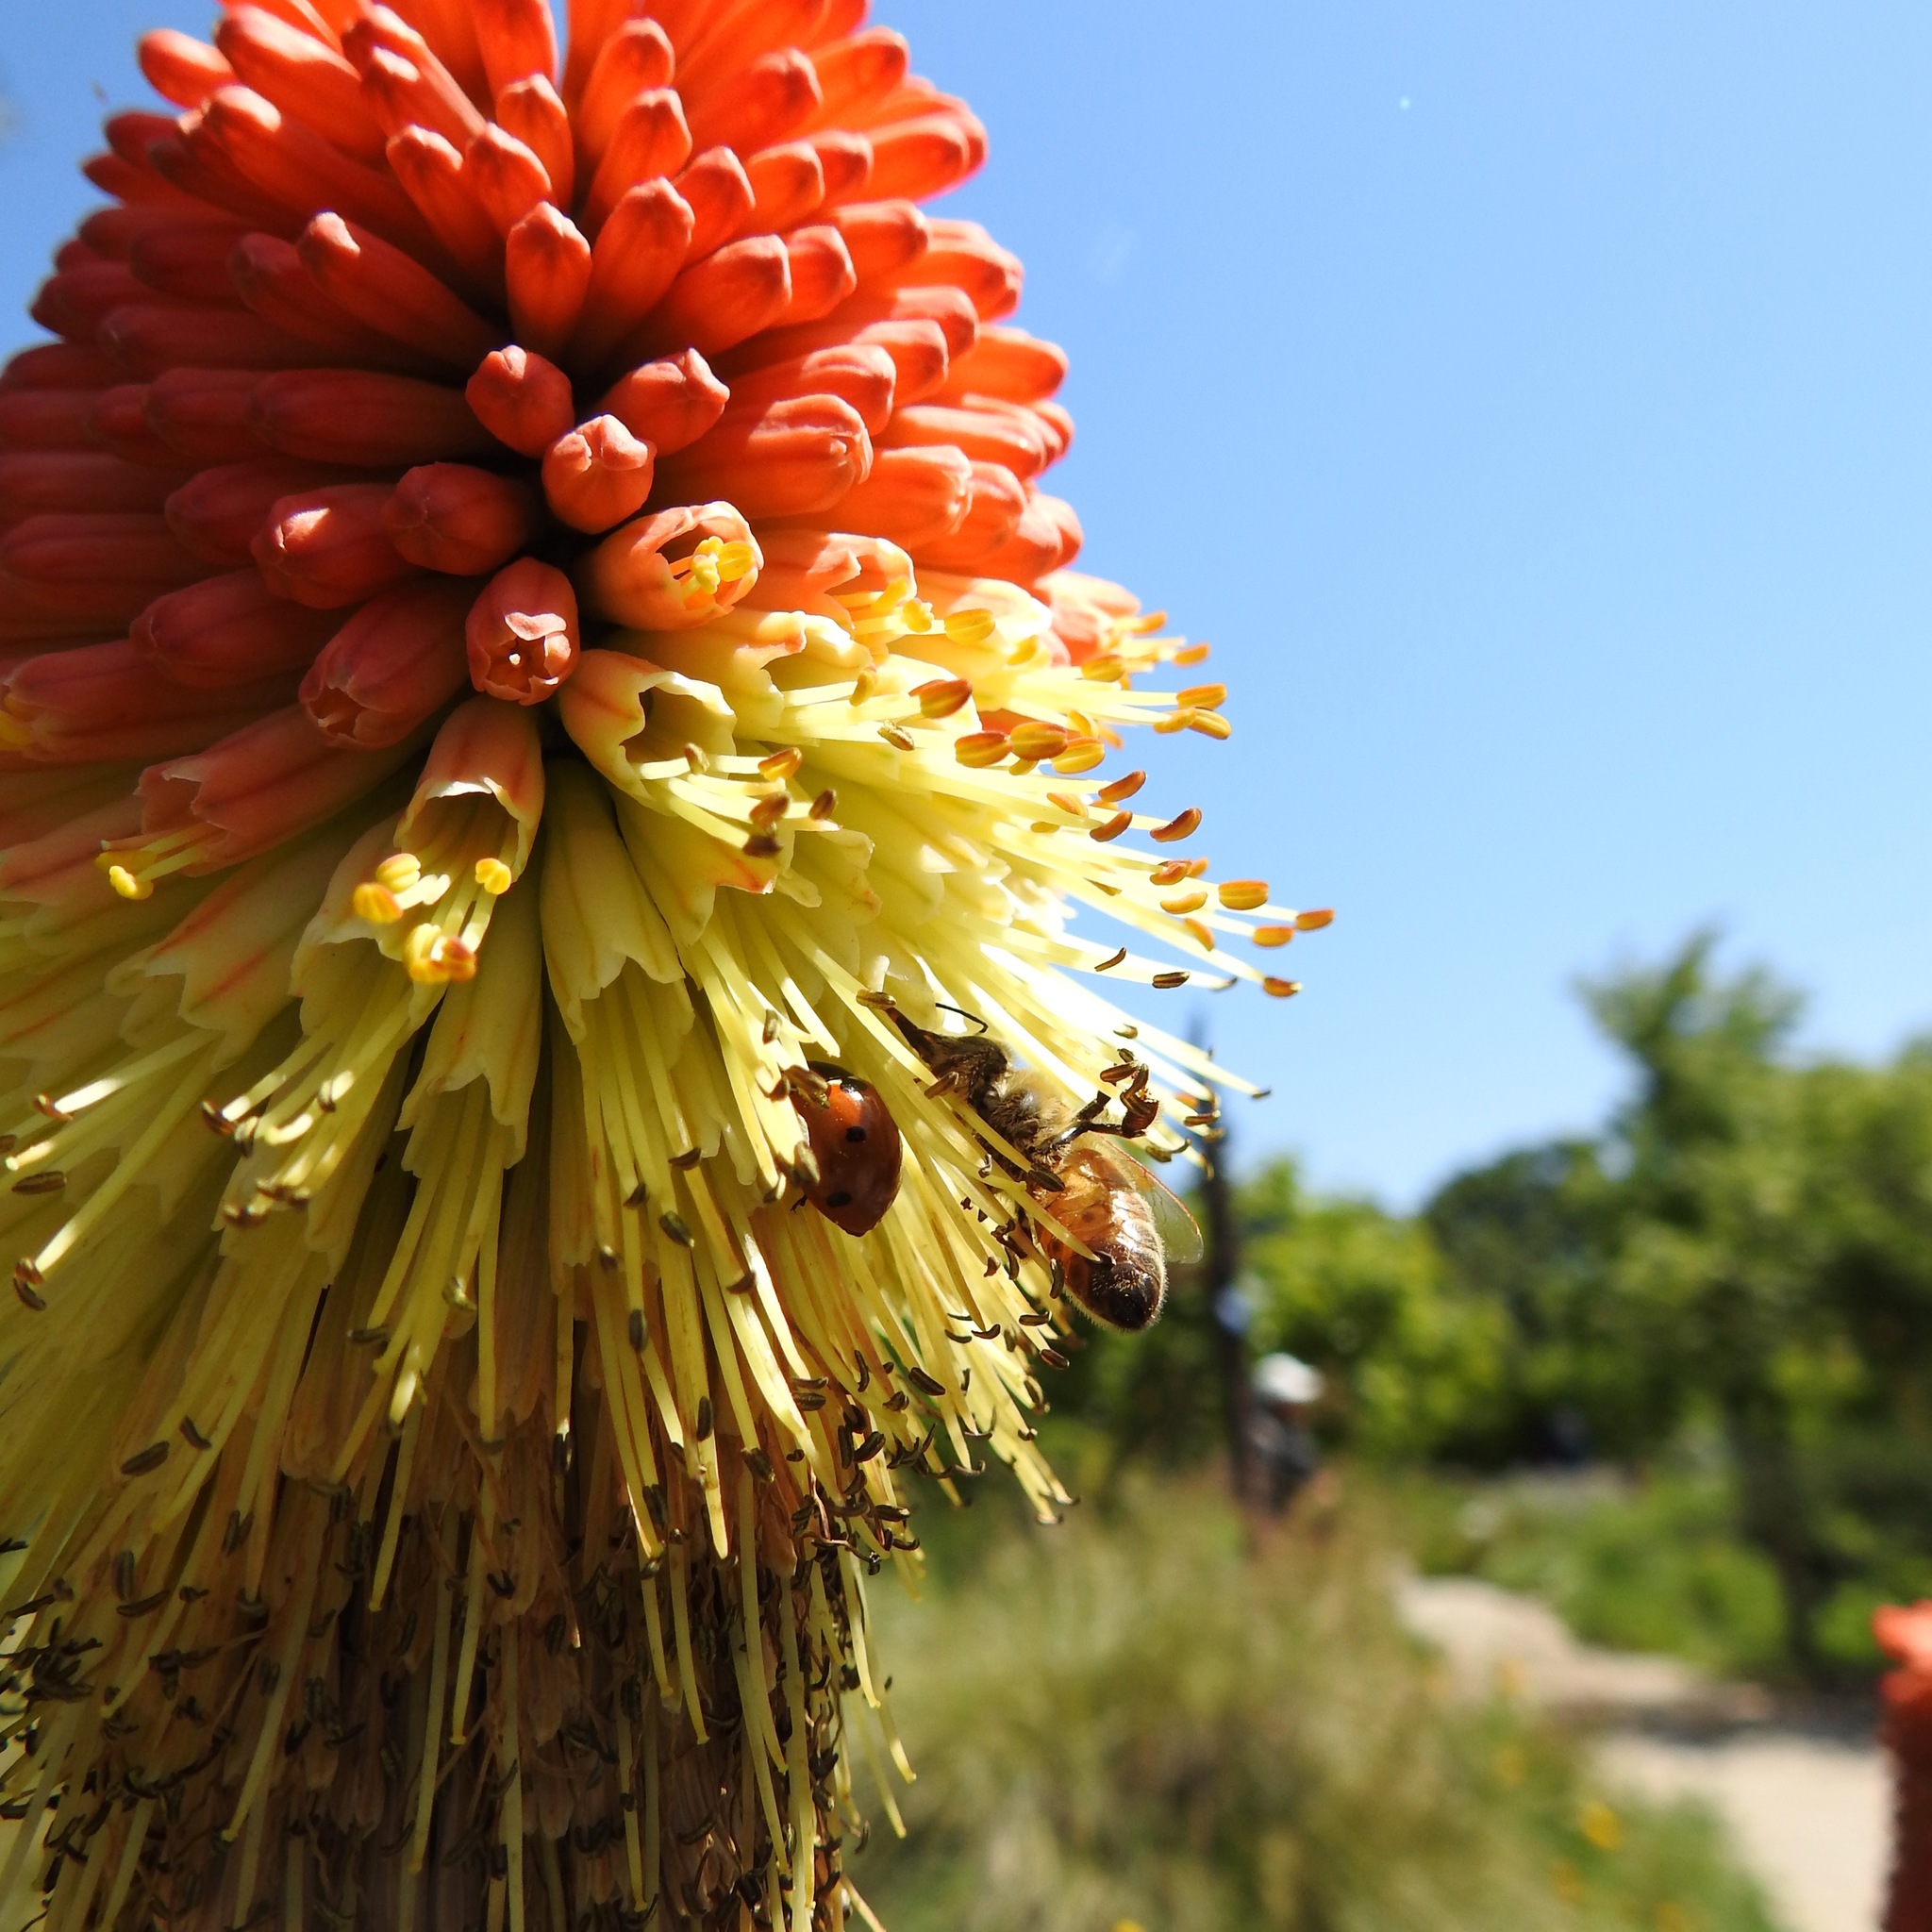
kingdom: Animalia
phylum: Arthropoda
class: Insecta
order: Coleoptera
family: Coccinellidae
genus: Coccinella
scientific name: Coccinella septempunctata
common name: Sevenspotted lady beetle
